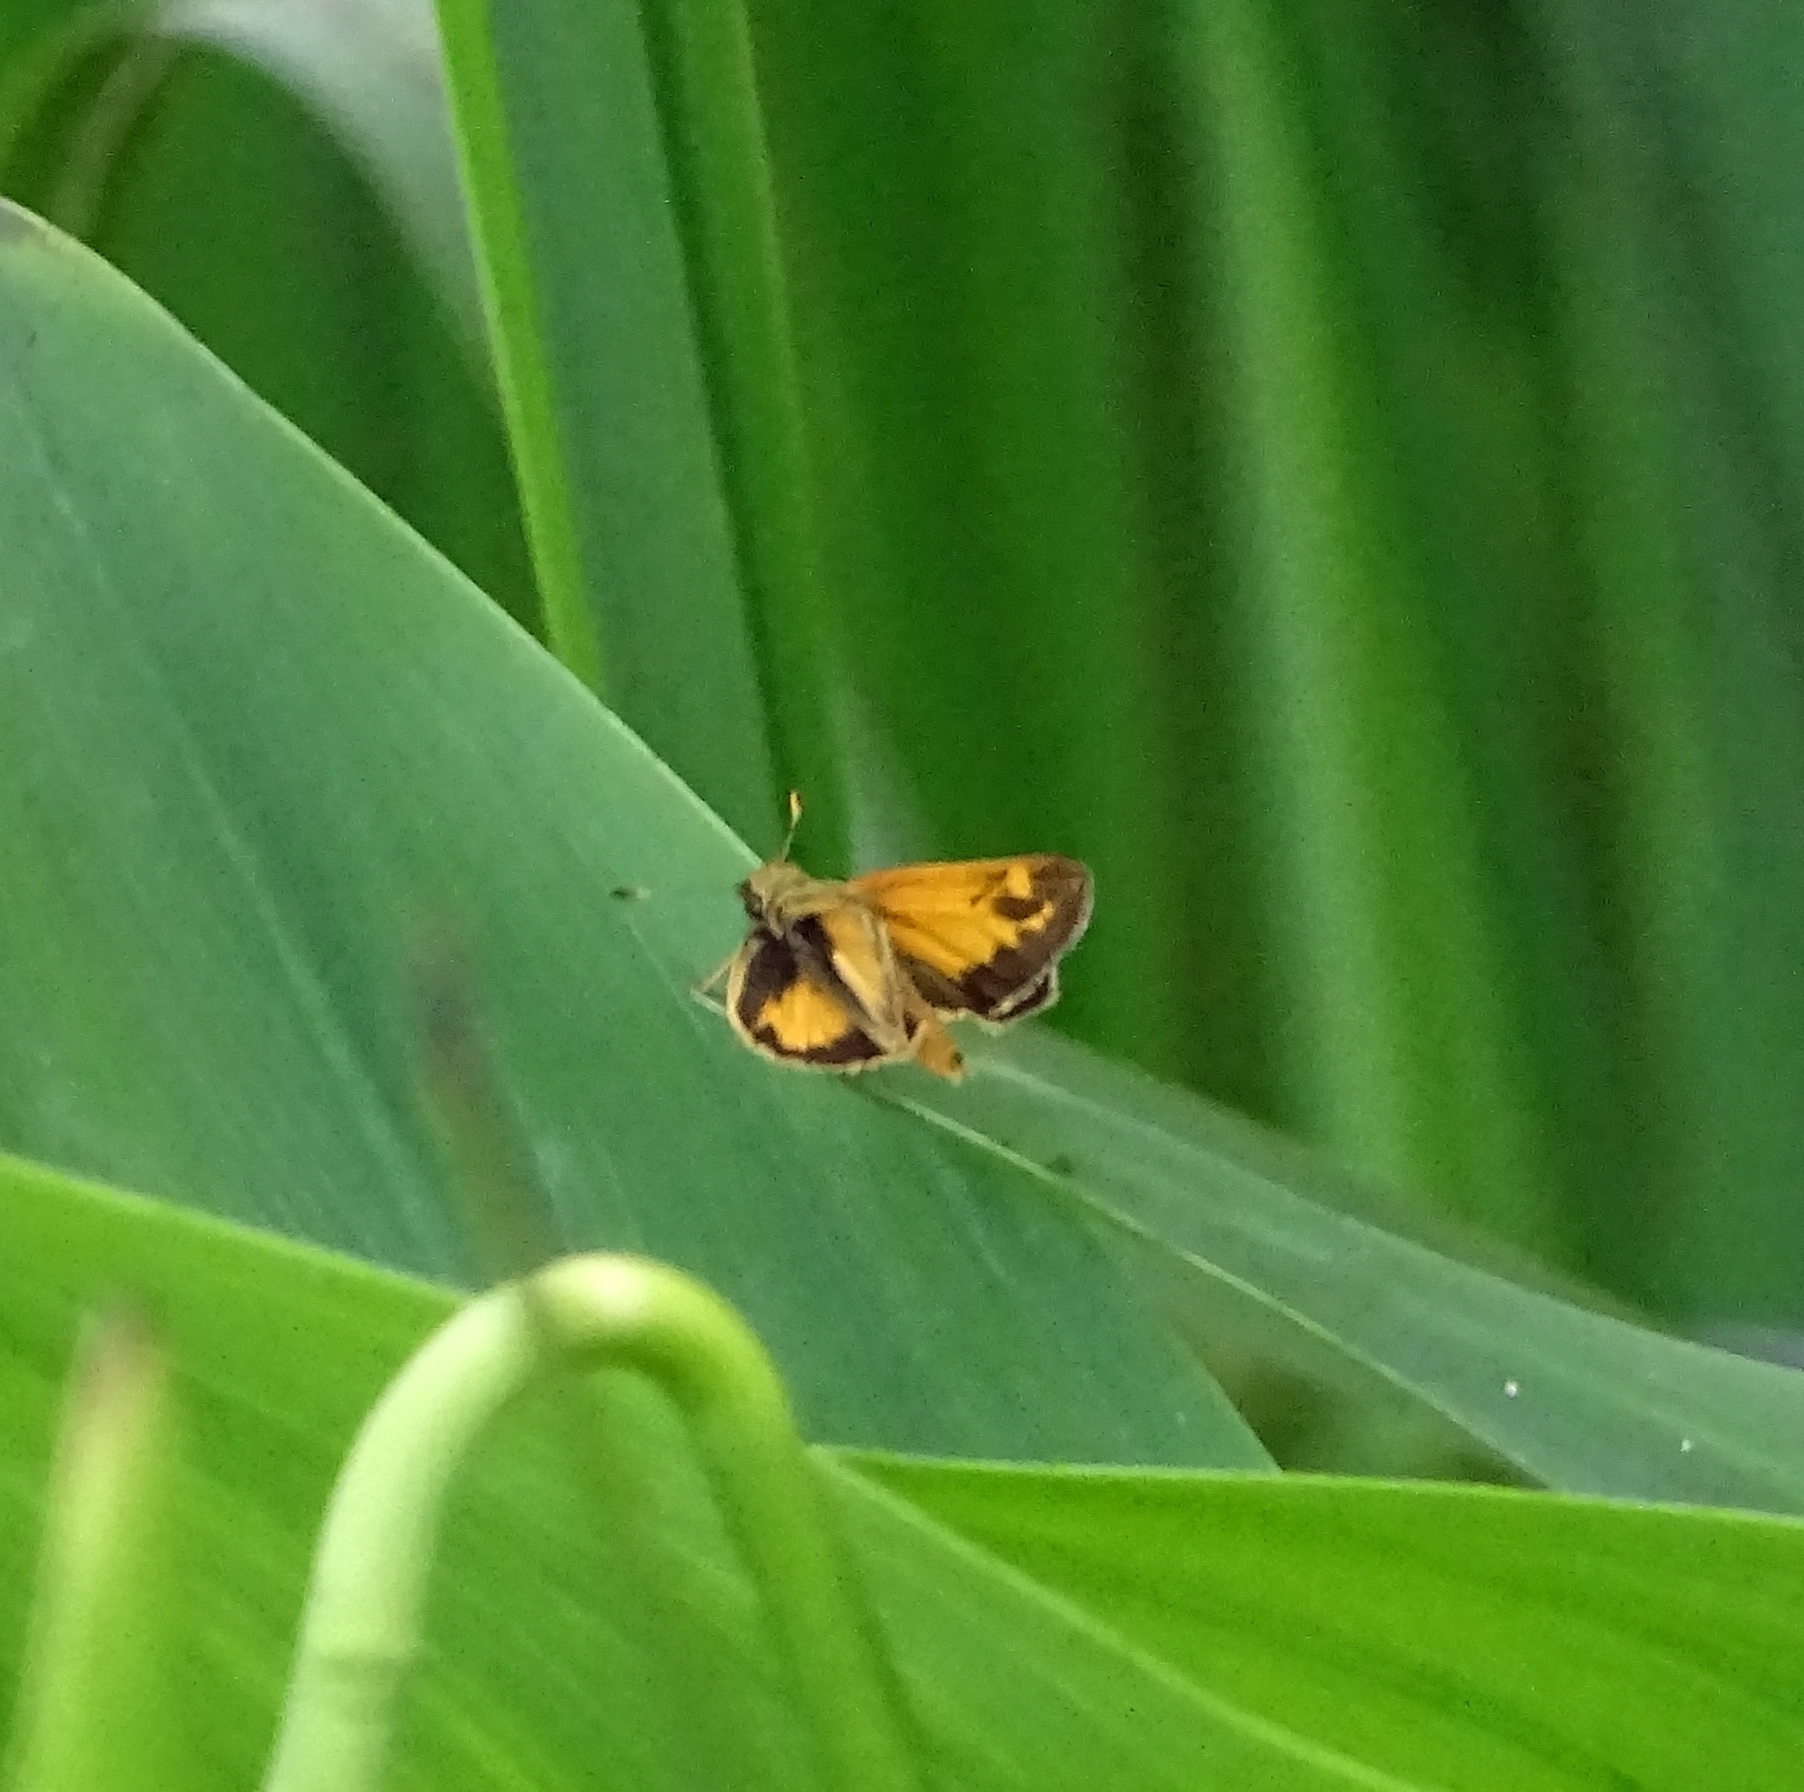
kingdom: Animalia
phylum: Arthropoda
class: Insecta
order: Lepidoptera
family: Hesperiidae
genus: Lon
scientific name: Lon zabulon
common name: Zabulon skipper
